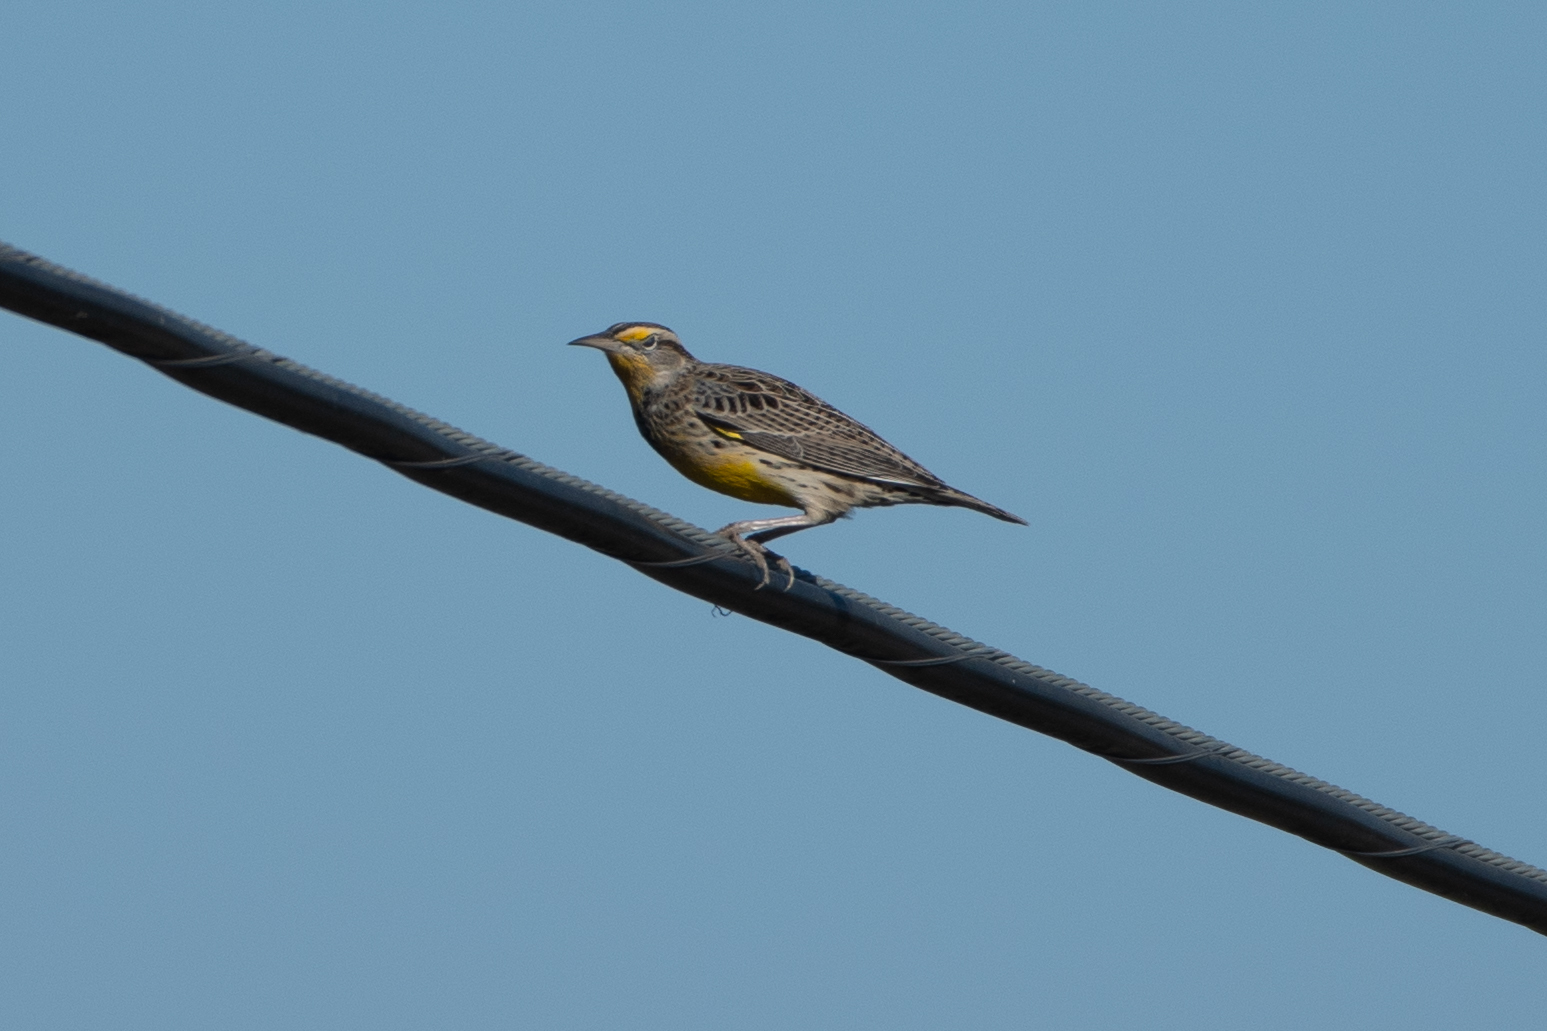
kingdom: Animalia
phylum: Chordata
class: Aves
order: Passeriformes
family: Icteridae
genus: Sturnella
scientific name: Sturnella neglecta
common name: Western meadowlark
